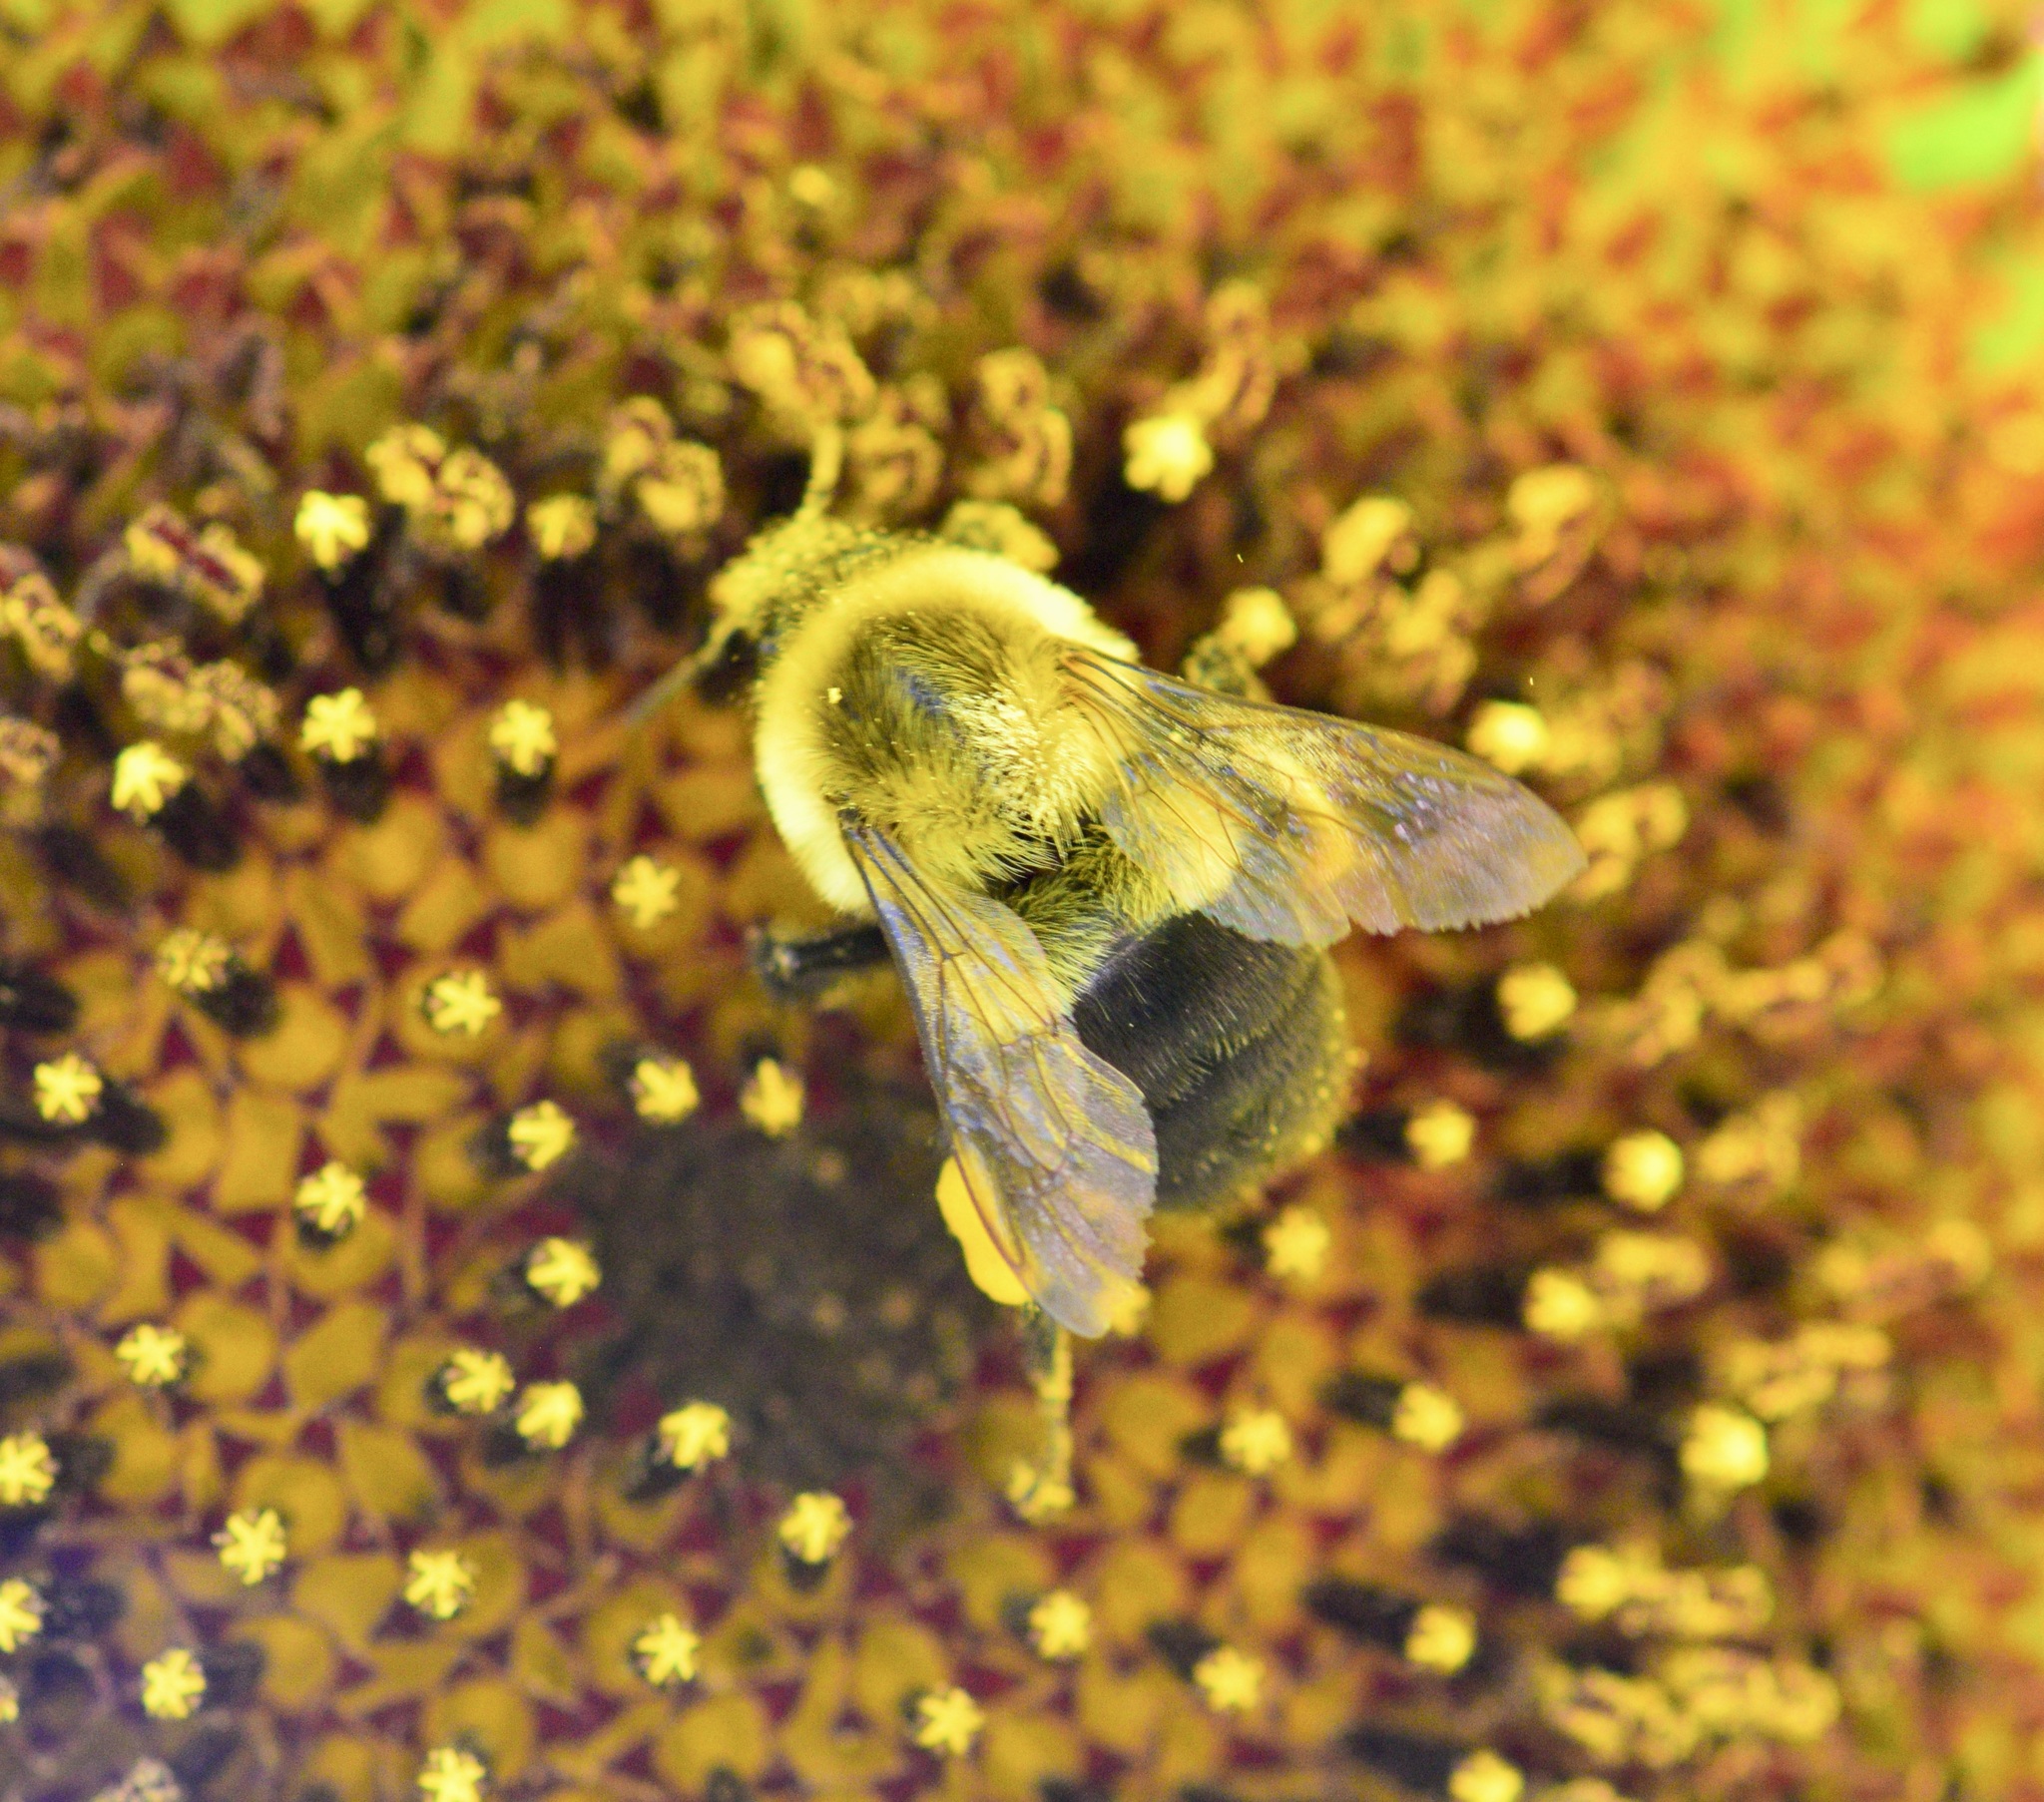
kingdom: Animalia
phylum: Arthropoda
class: Insecta
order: Hymenoptera
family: Apidae
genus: Bombus
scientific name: Bombus impatiens
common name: Common eastern bumble bee
